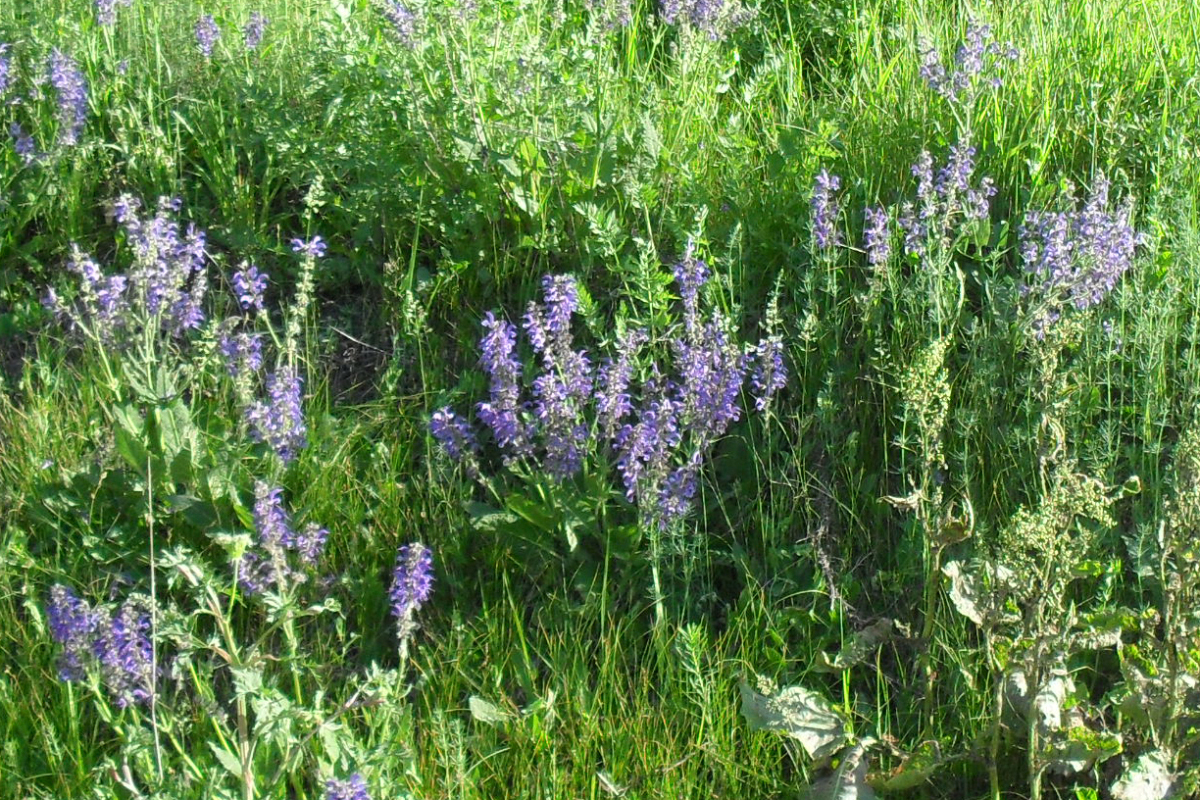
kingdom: Plantae
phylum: Tracheophyta
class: Magnoliopsida
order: Lamiales
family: Lamiaceae
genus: Salvia
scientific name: Salvia pratensis
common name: Meadow sage
